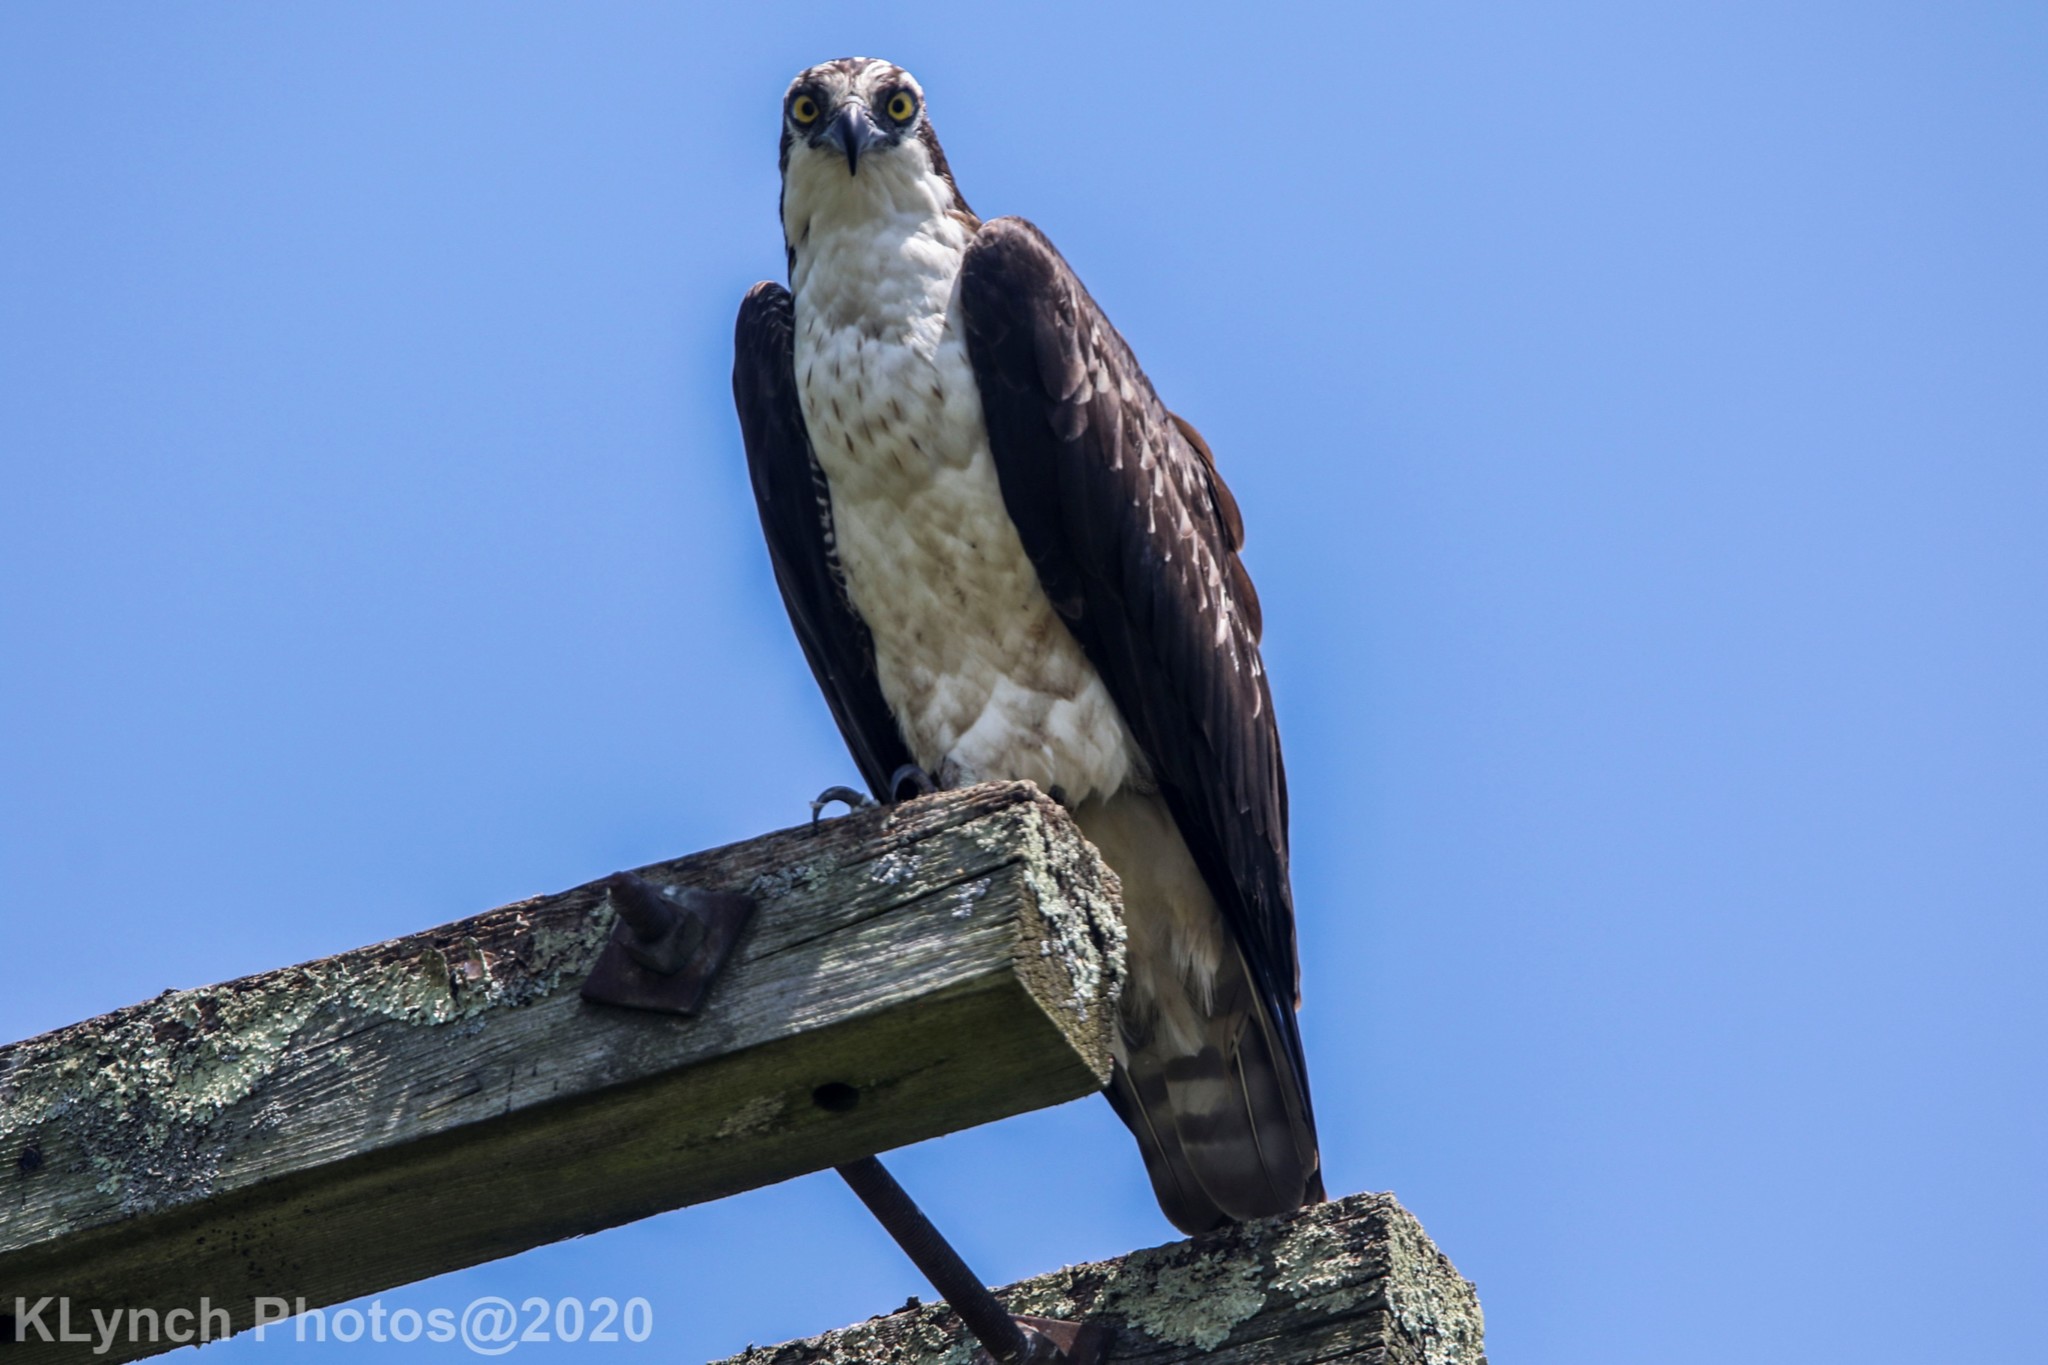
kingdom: Animalia
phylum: Chordata
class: Aves
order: Accipitriformes
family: Pandionidae
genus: Pandion
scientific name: Pandion haliaetus
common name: Osprey
